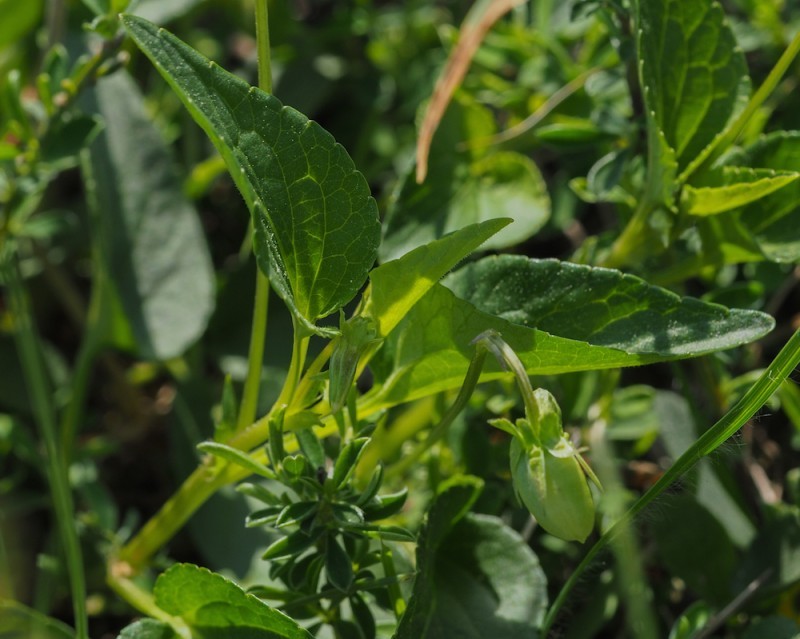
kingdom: Plantae
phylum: Tracheophyta
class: Magnoliopsida
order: Malpighiales
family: Violaceae
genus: Viola
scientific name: Viola canina
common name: Heath dog-violet
